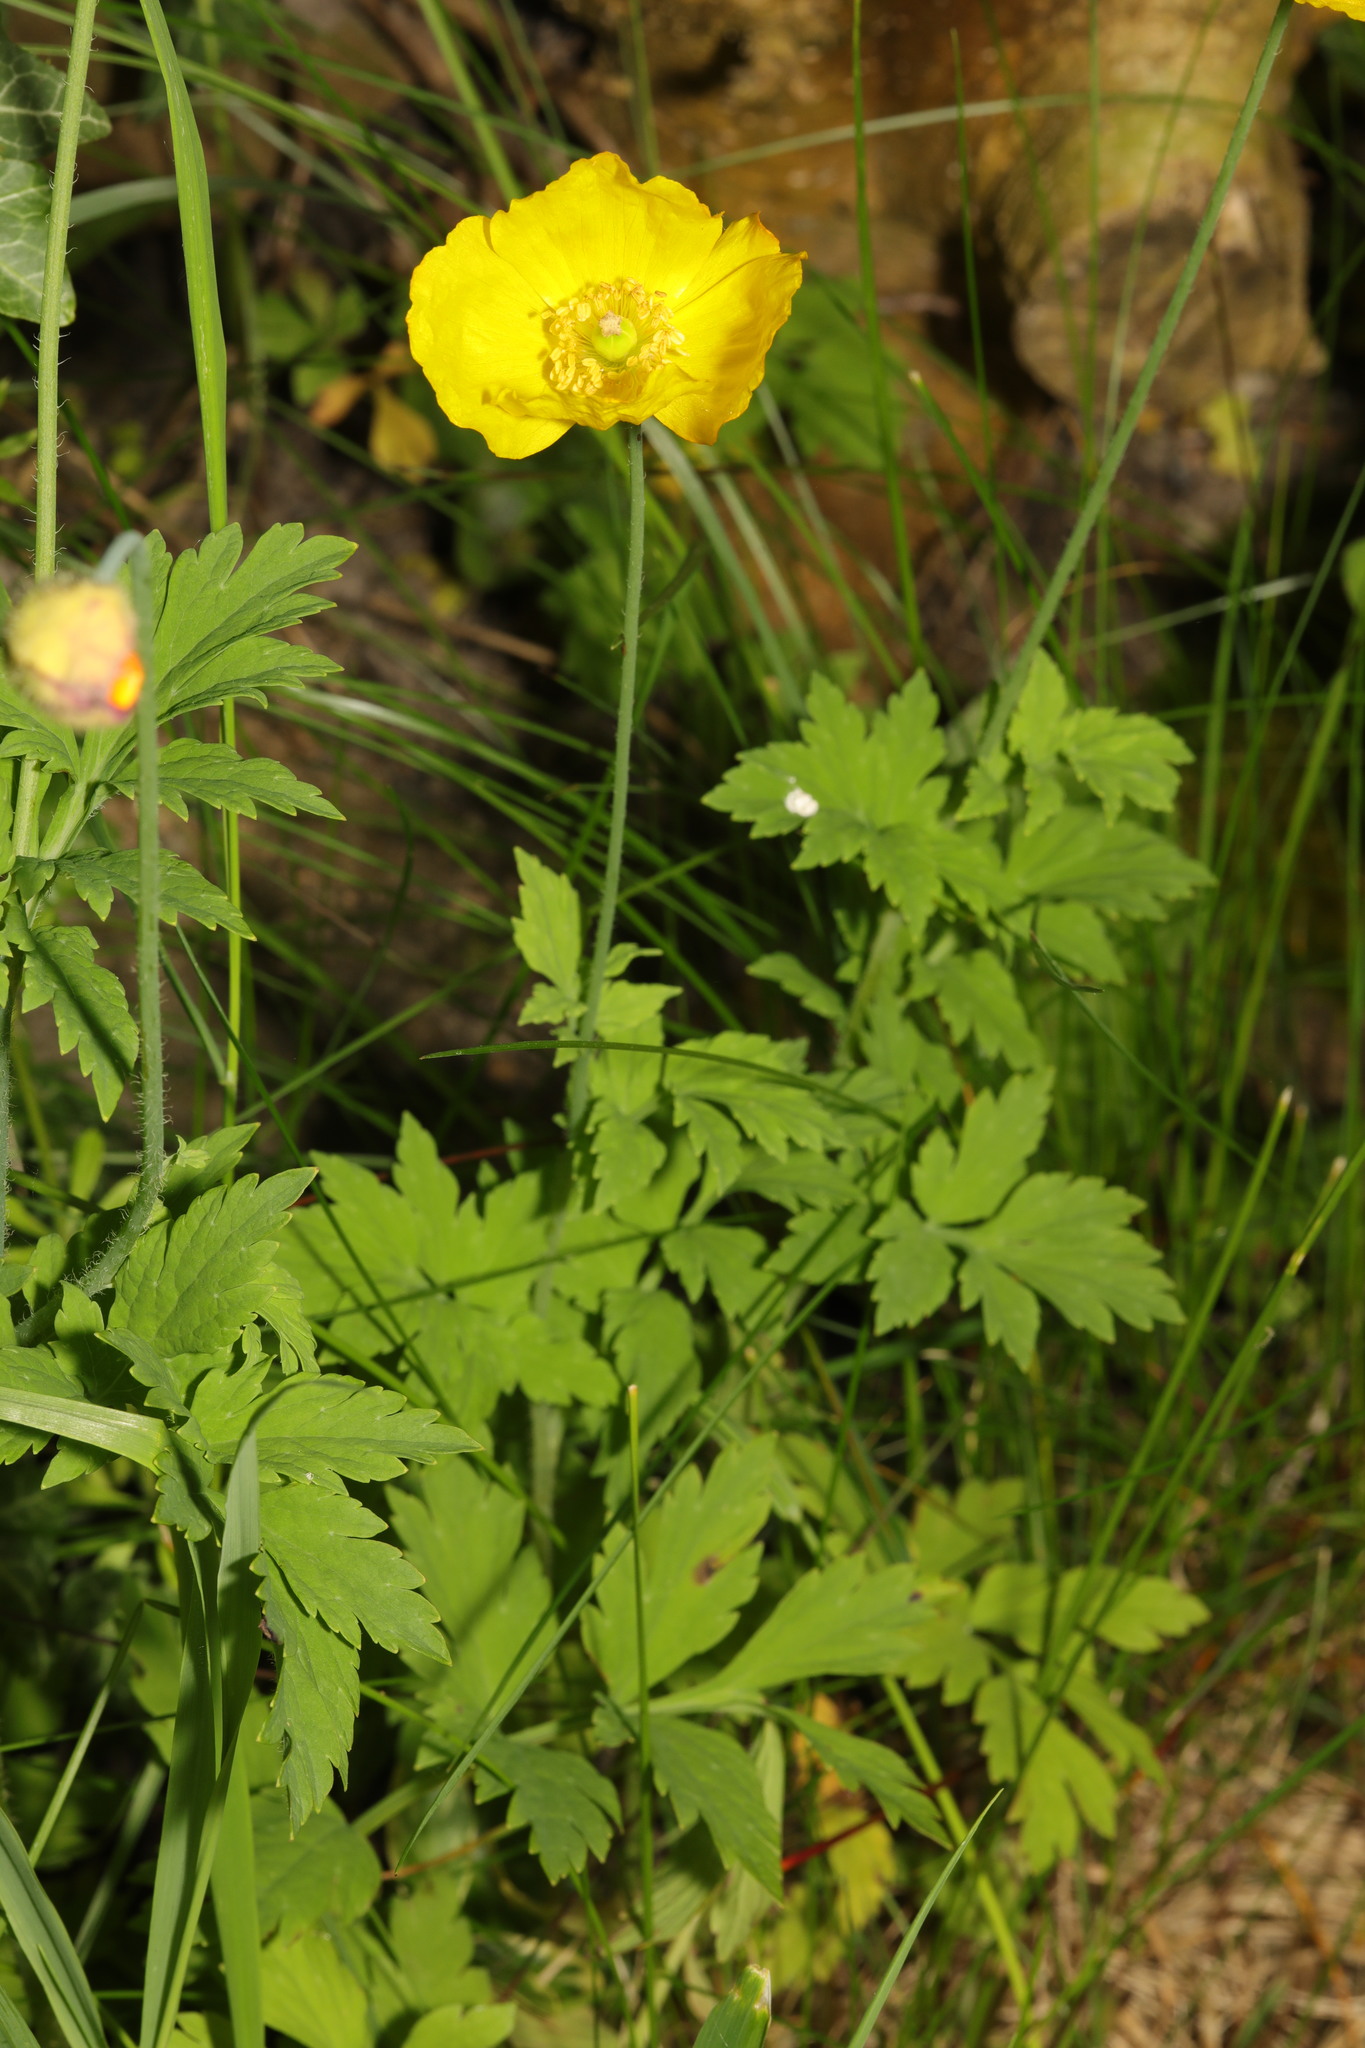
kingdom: Plantae
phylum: Tracheophyta
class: Magnoliopsida
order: Ranunculales
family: Papaveraceae
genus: Papaver
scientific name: Papaver cambricum
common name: Poppy
